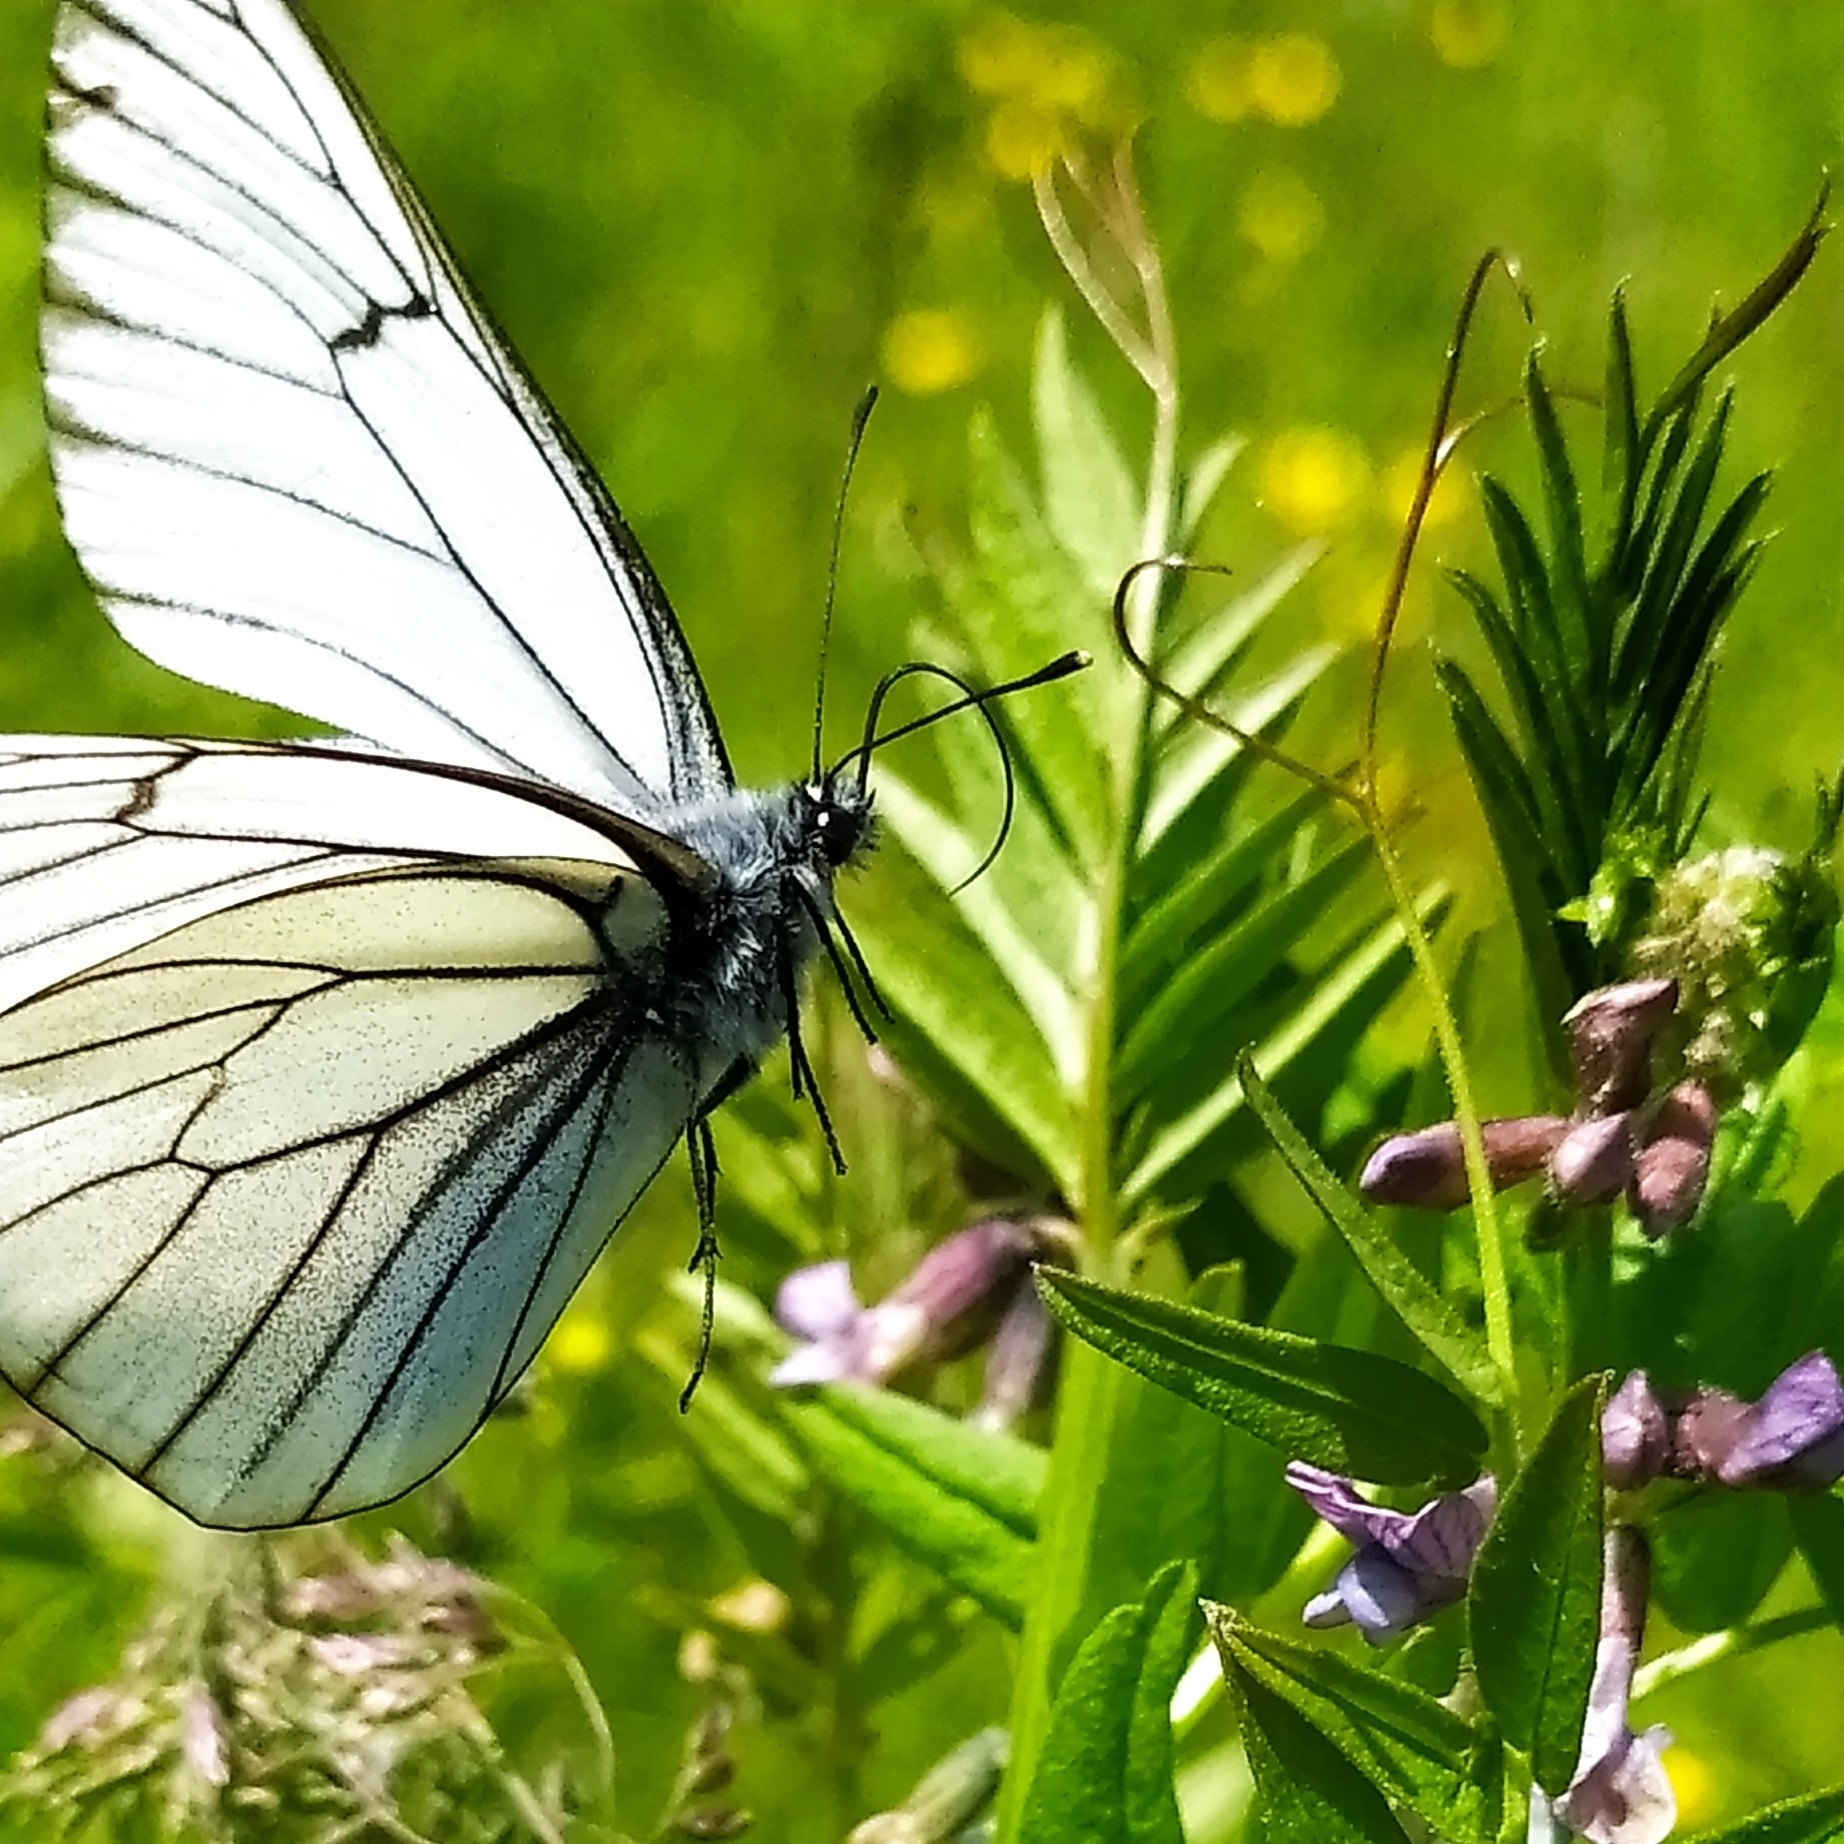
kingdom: Animalia
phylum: Arthropoda
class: Insecta
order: Lepidoptera
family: Pieridae
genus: Aporia
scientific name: Aporia crataegi
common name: Black-veined white
